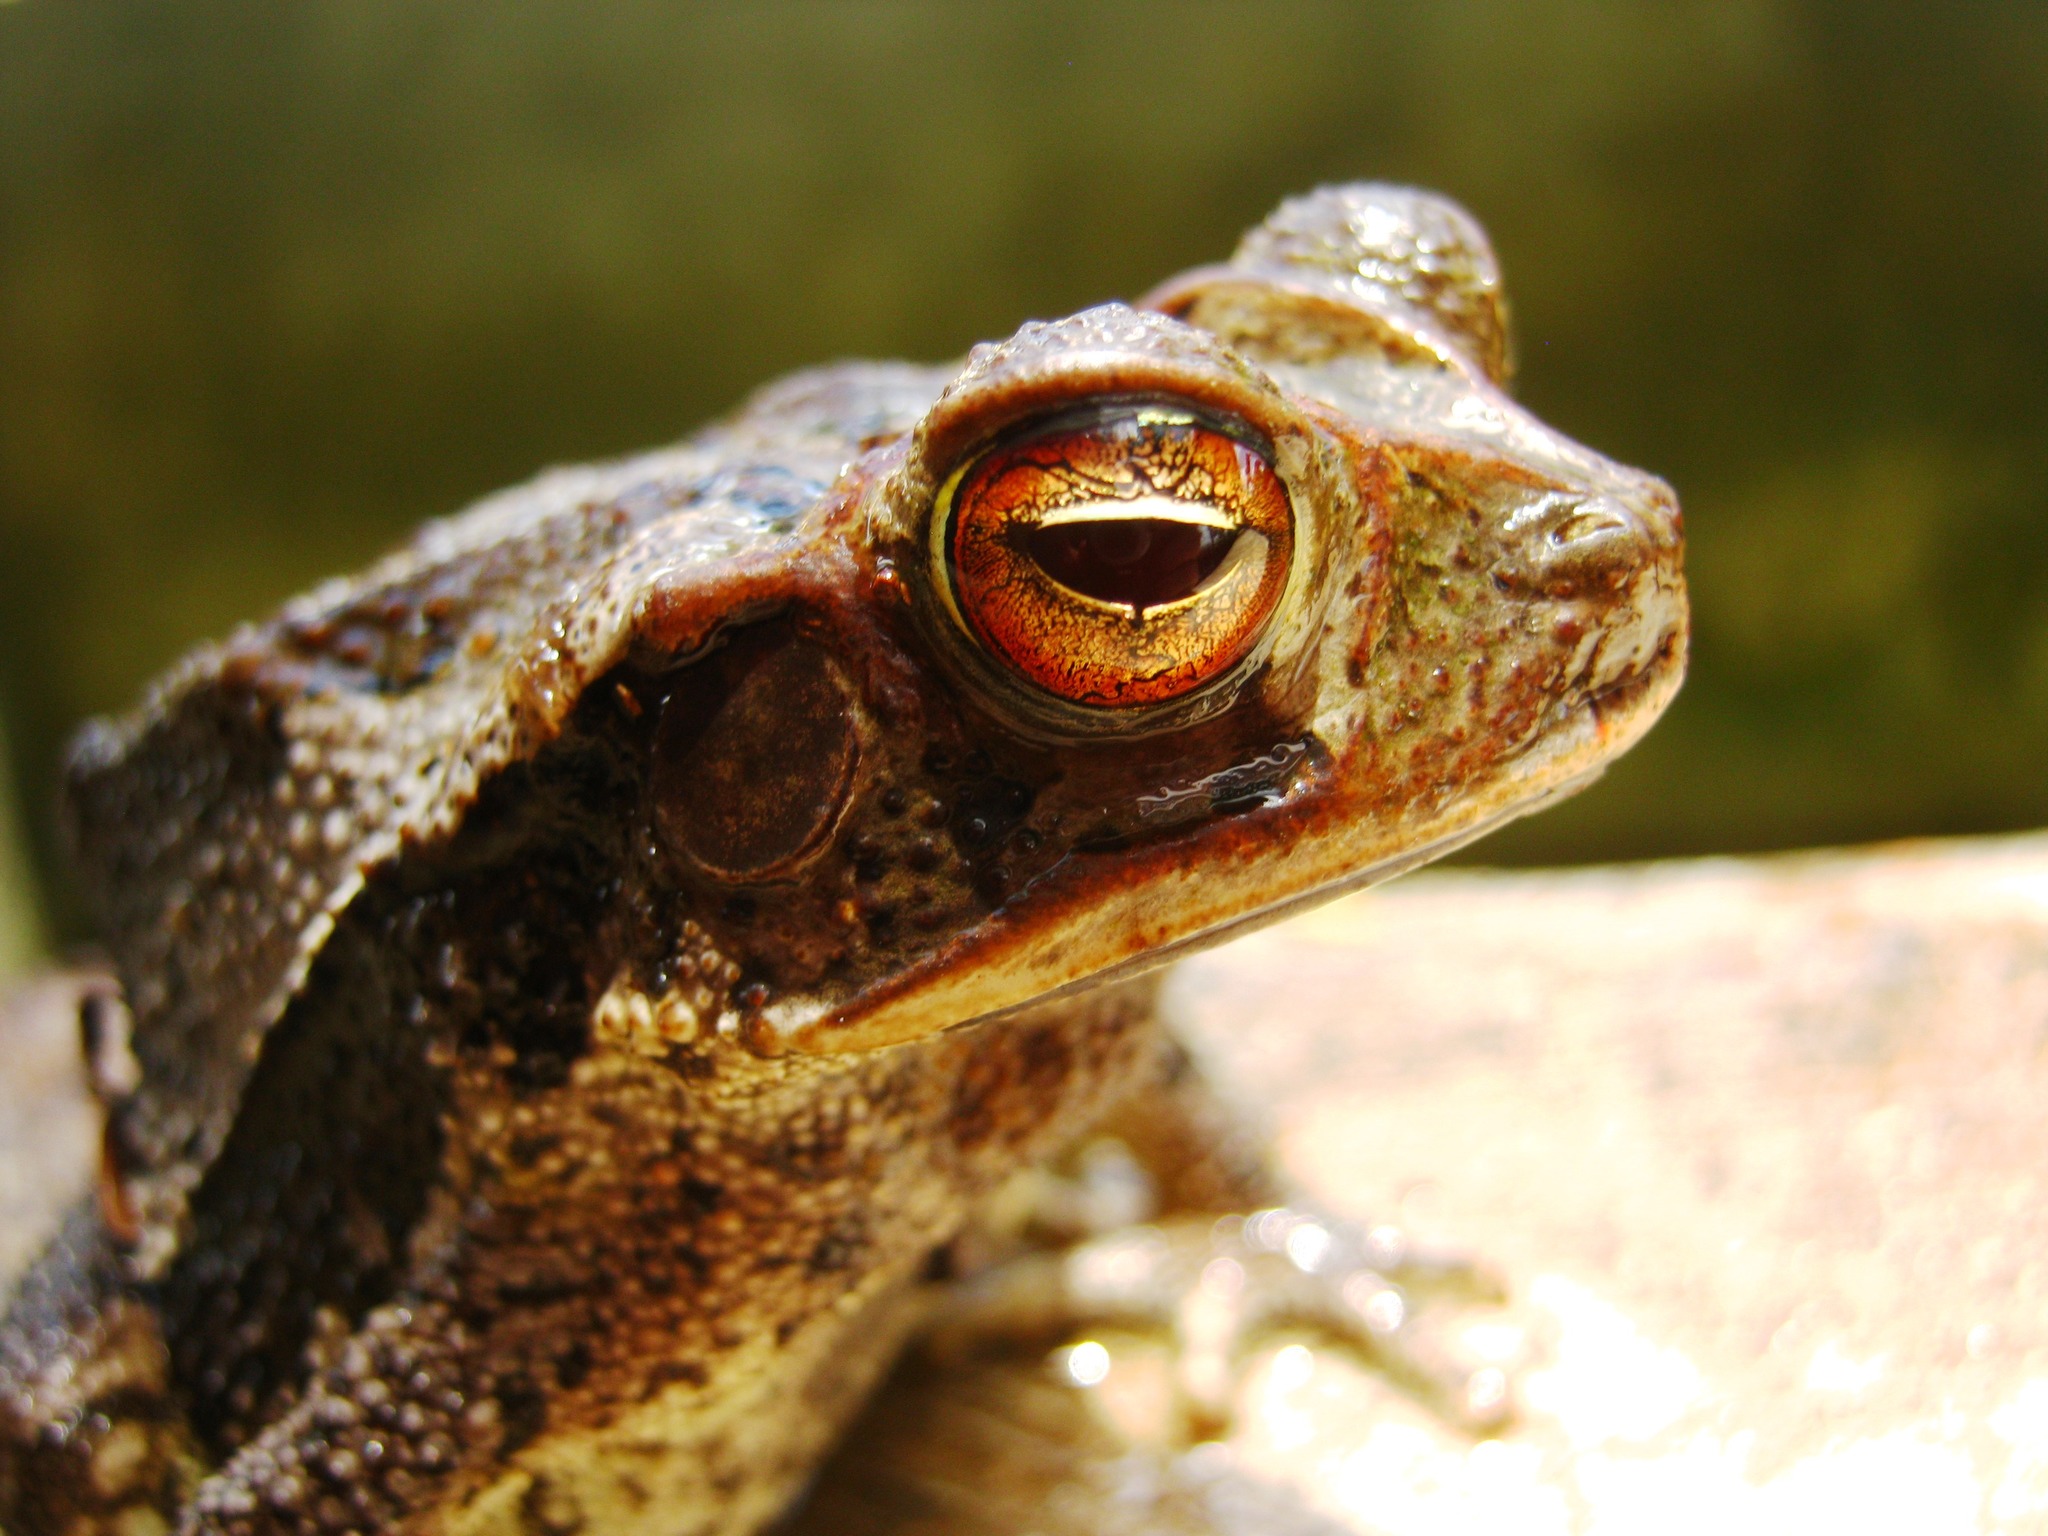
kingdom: Animalia
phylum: Chordata
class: Amphibia
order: Anura
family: Bufonidae
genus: Incilius
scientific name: Incilius valliceps
